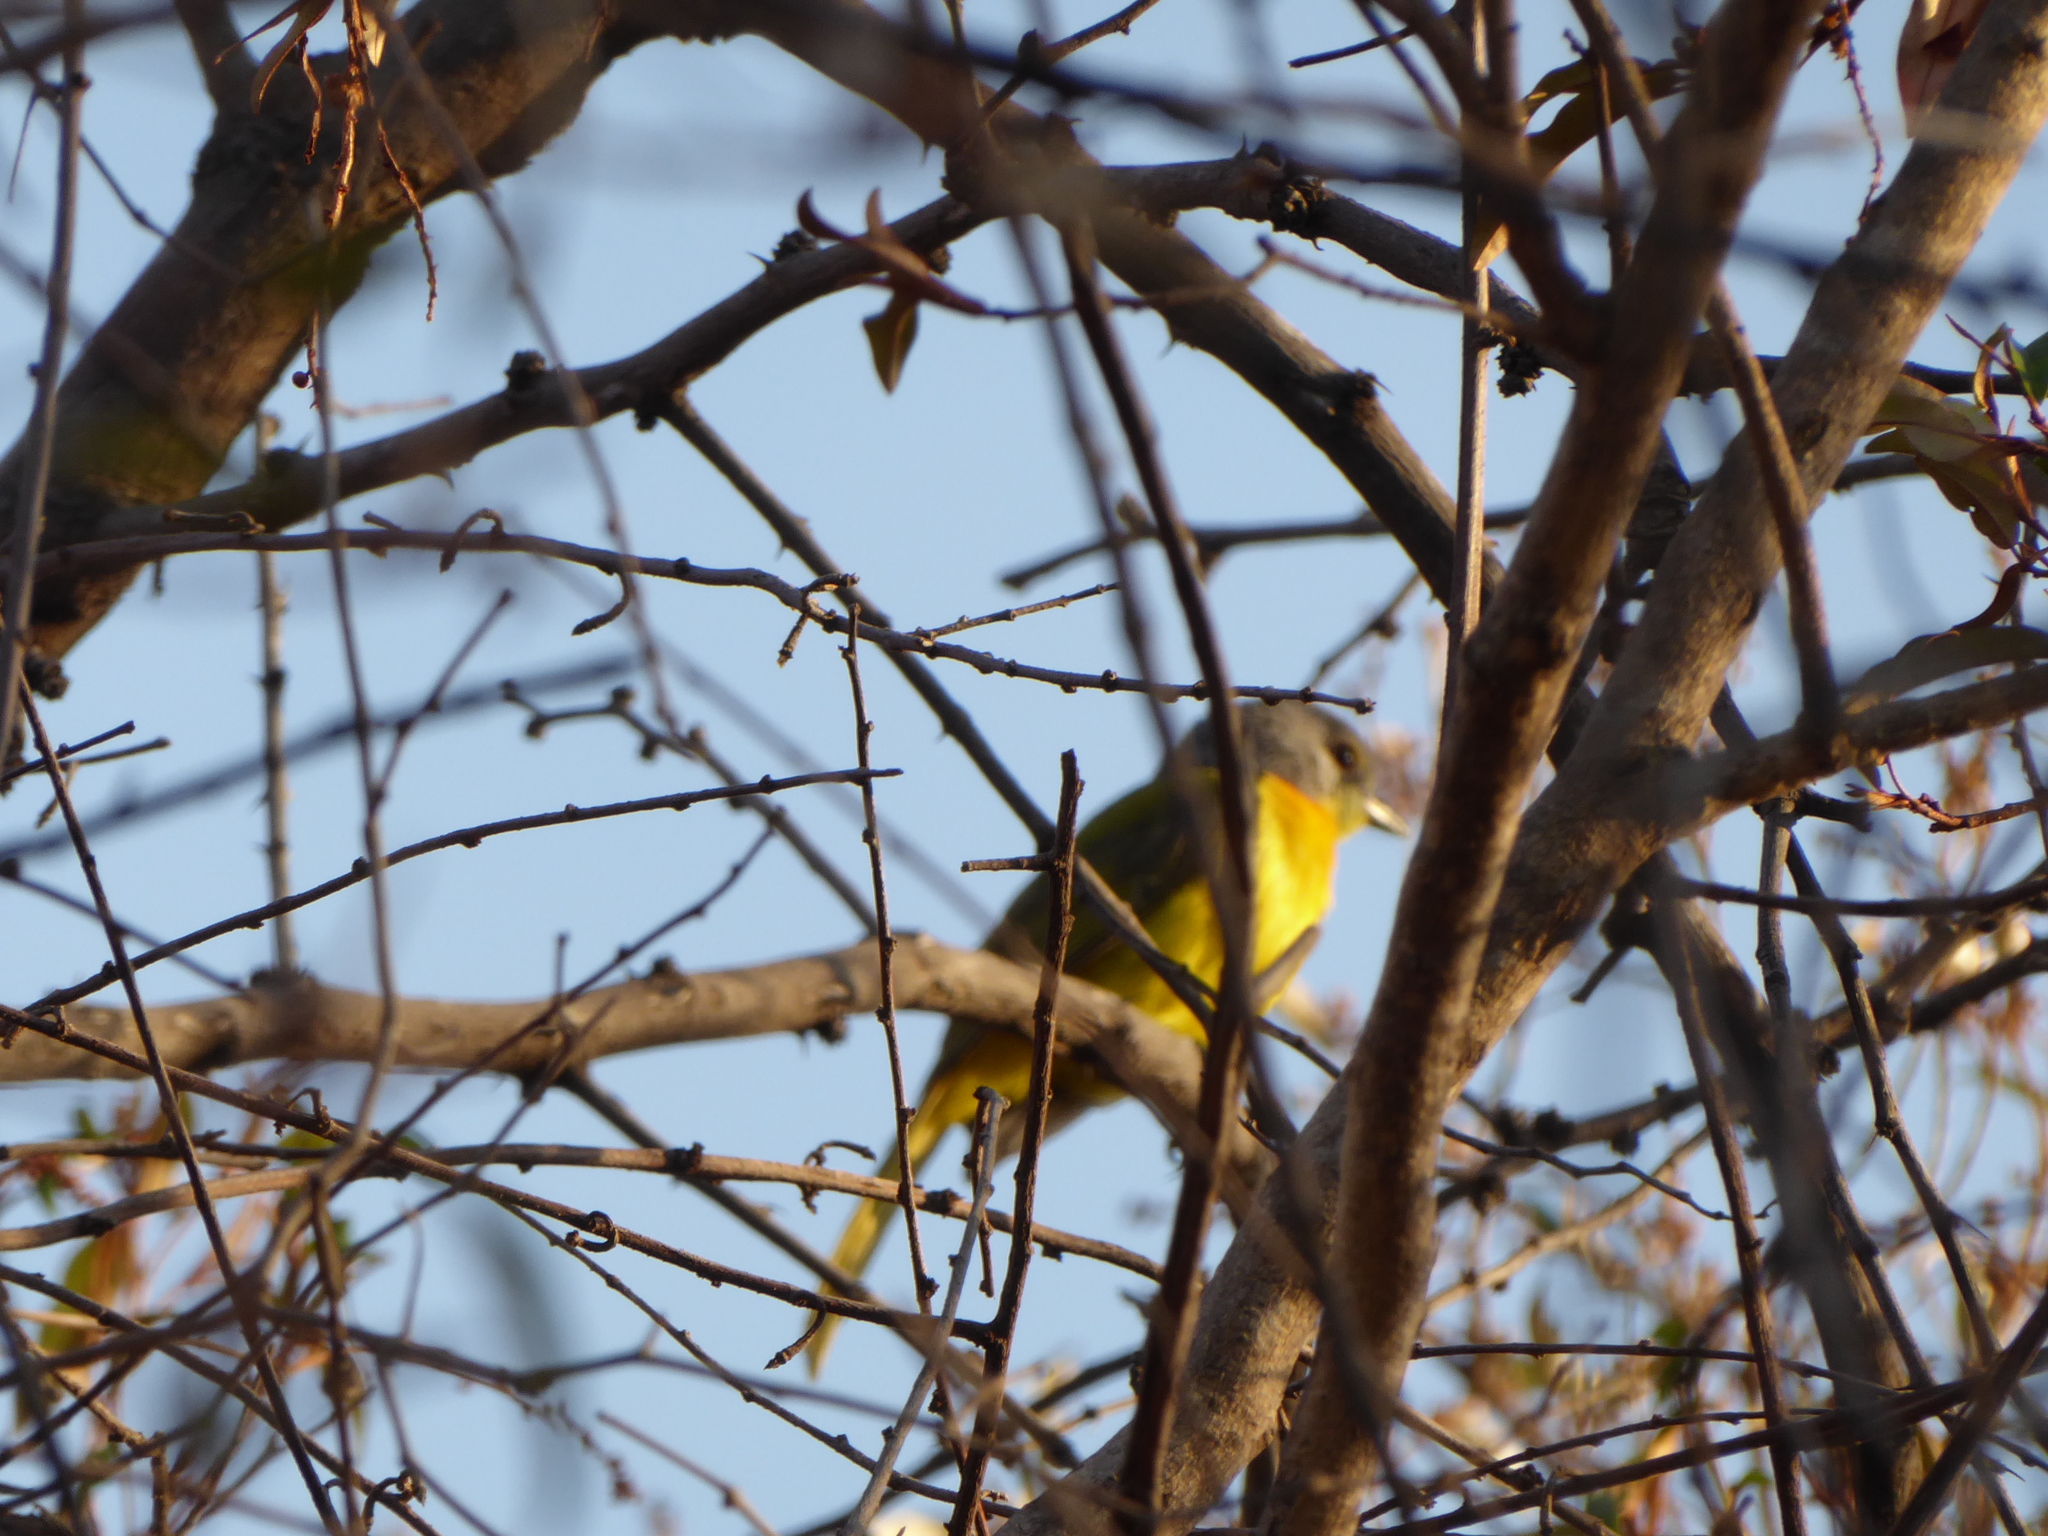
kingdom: Animalia
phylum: Chordata
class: Aves
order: Passeriformes
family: Malaconotidae
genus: Chlorophoneus
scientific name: Chlorophoneus sulfureopectus
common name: Orange-breasted bushshrike
